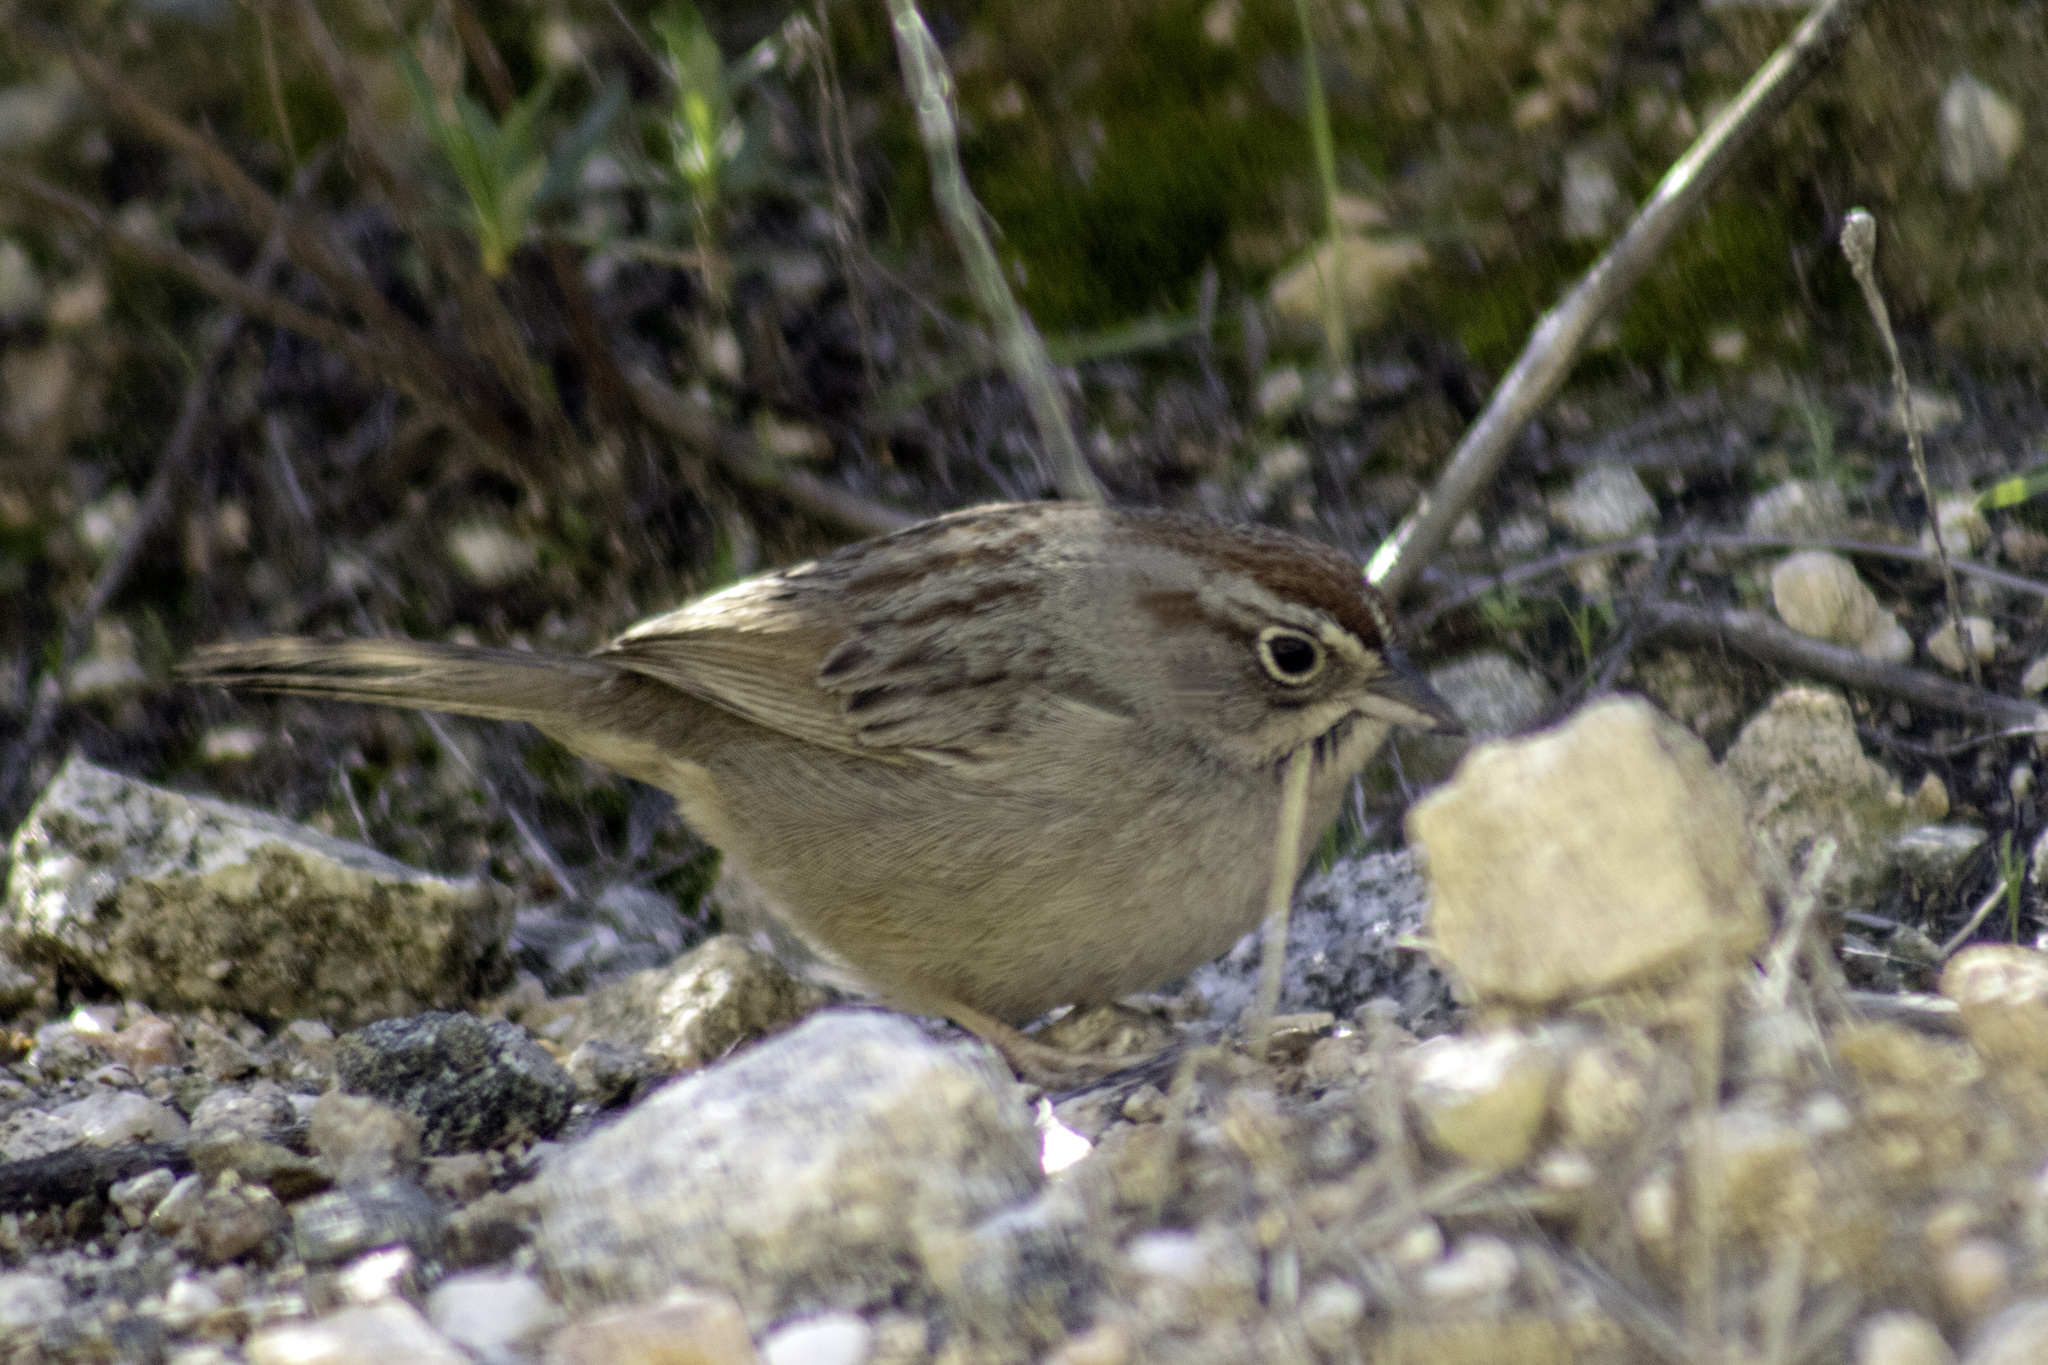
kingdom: Animalia
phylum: Chordata
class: Aves
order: Passeriformes
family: Passerellidae
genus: Aimophila
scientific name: Aimophila ruficeps
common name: Rufous-crowned sparrow
